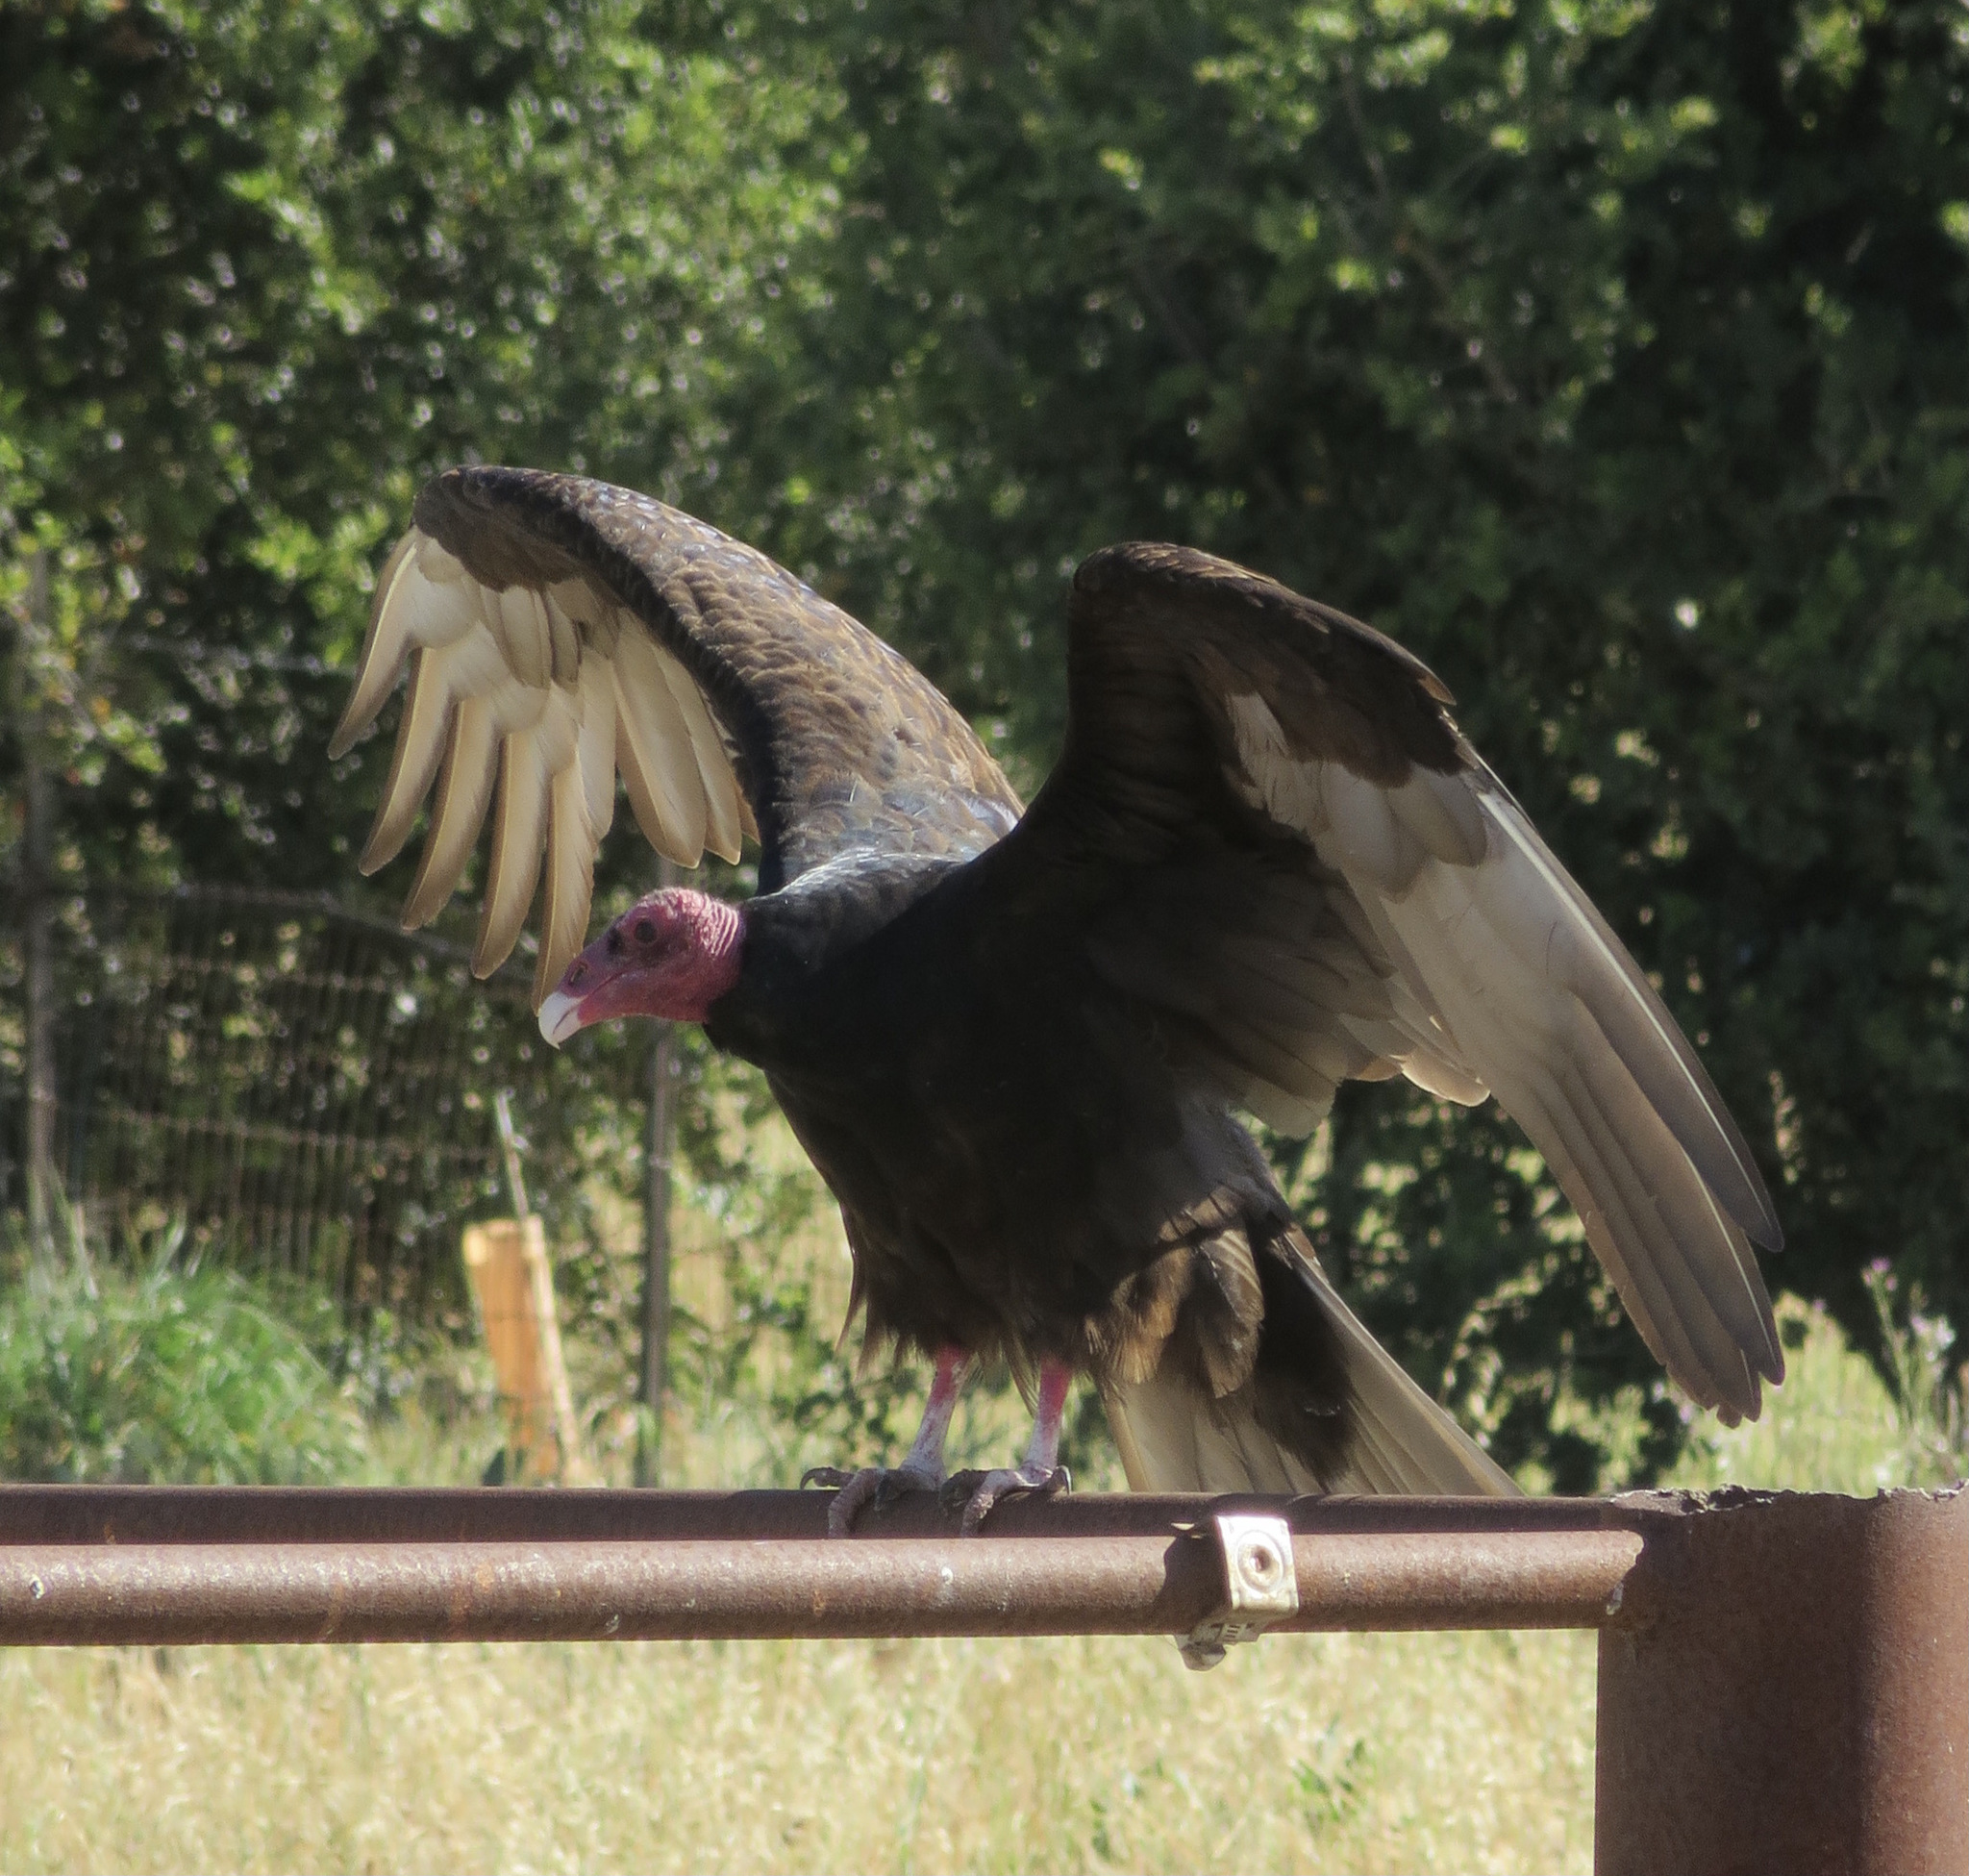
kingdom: Animalia
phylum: Chordata
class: Aves
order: Accipitriformes
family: Cathartidae
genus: Cathartes
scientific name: Cathartes aura
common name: Turkey vulture
